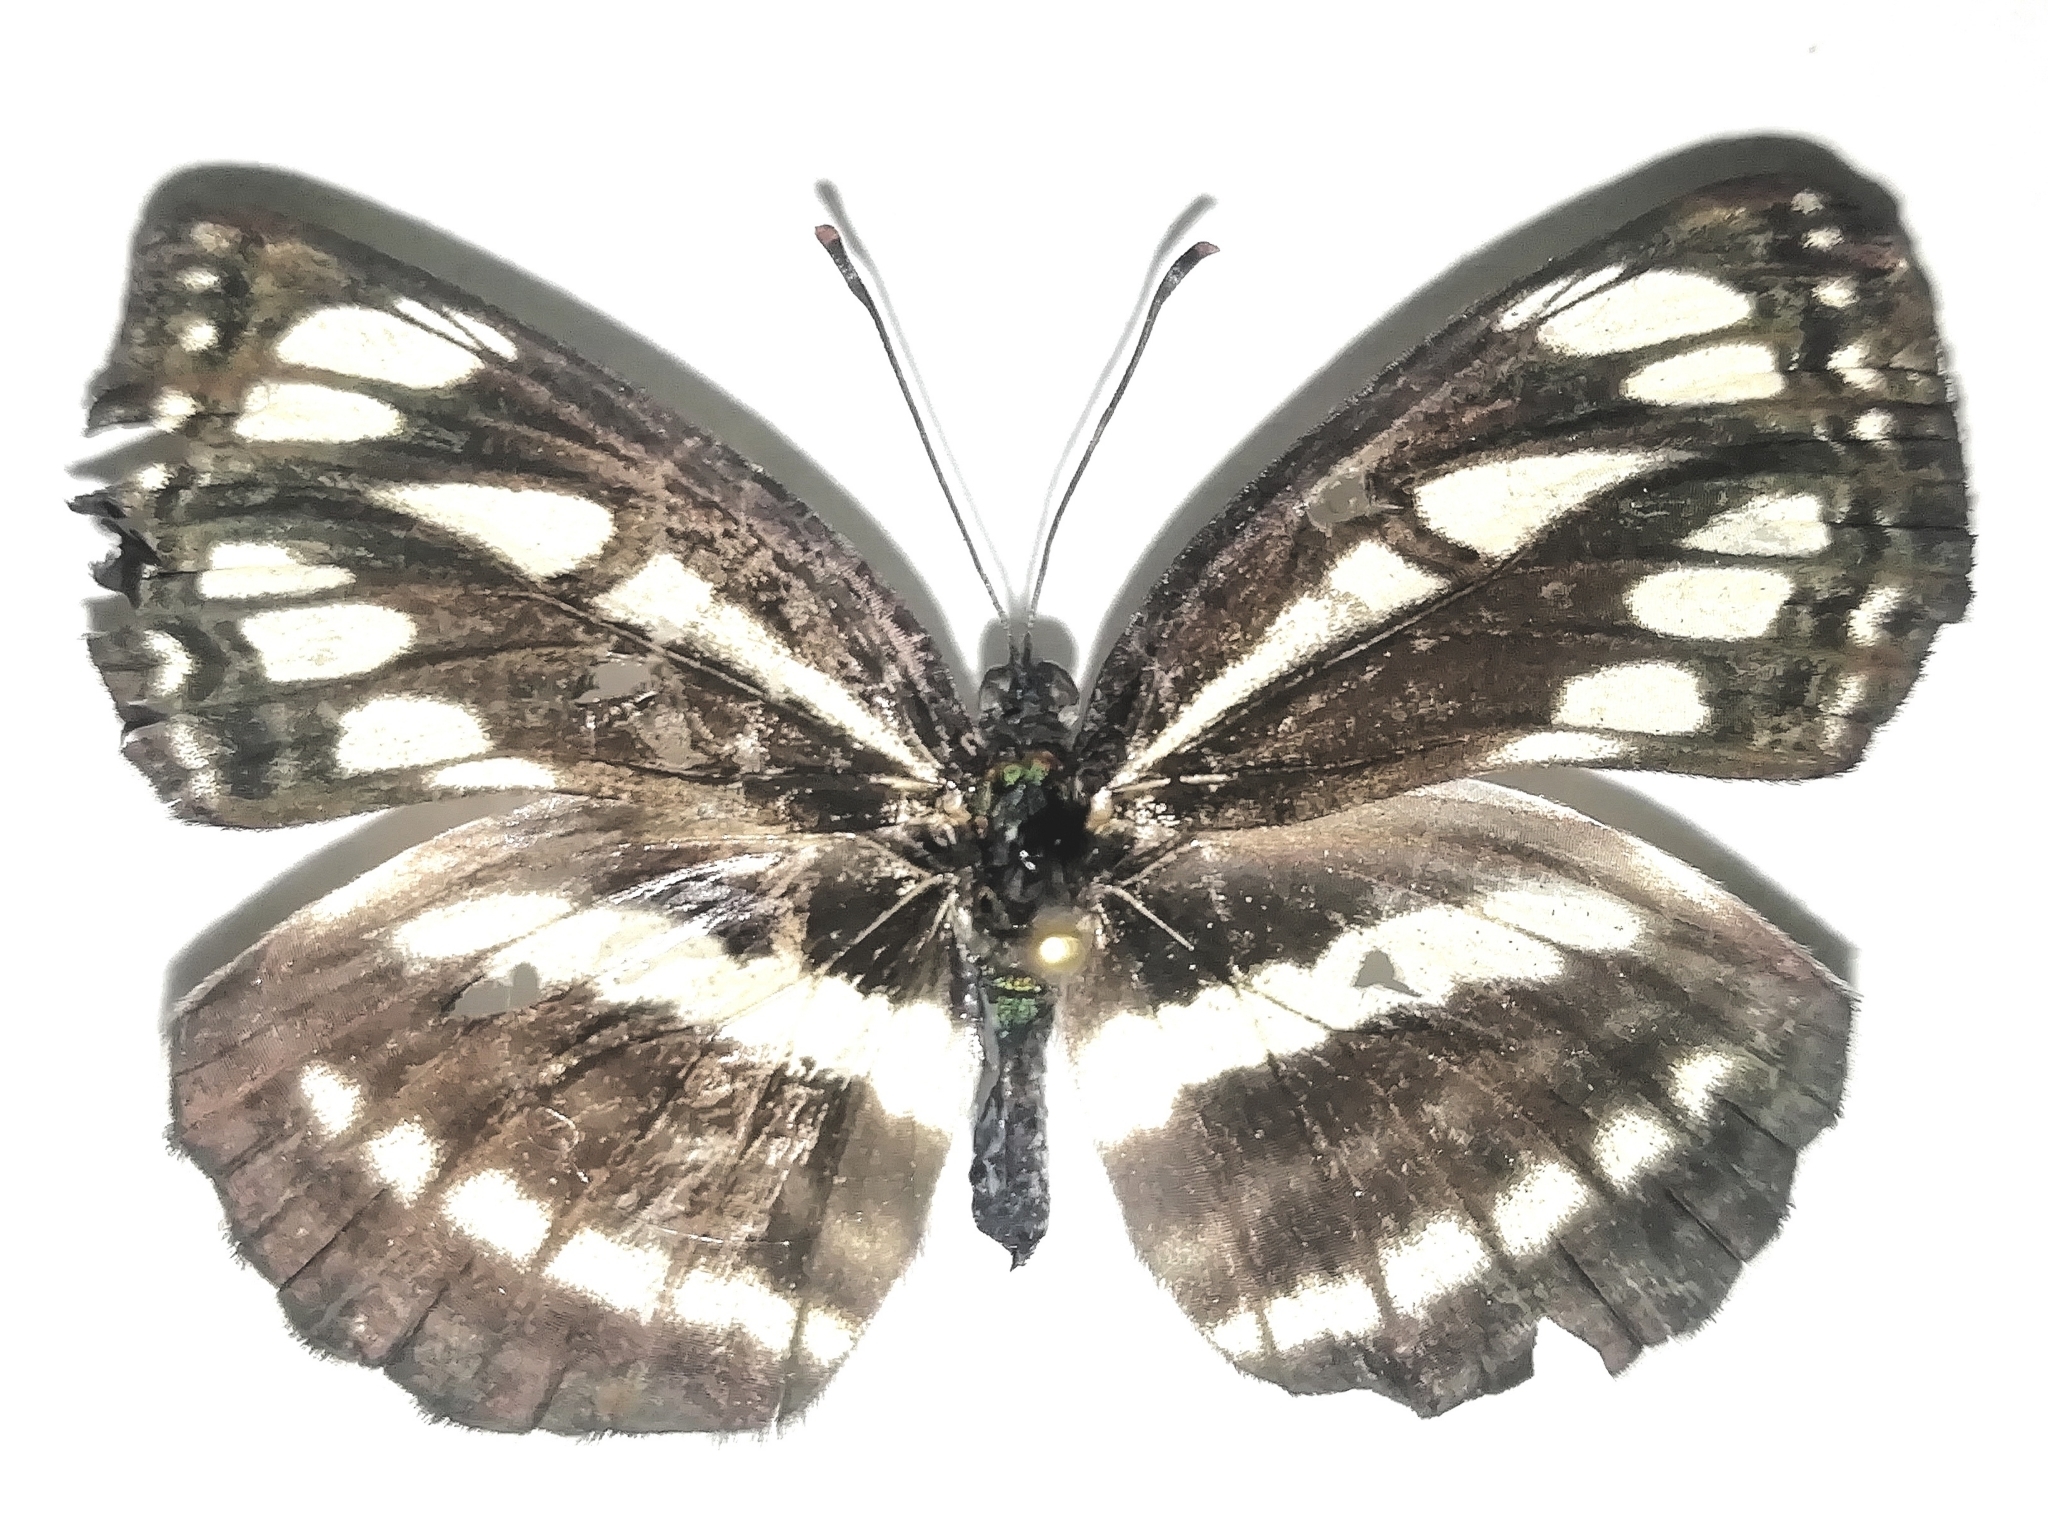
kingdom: Animalia
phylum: Arthropoda
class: Insecta
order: Lepidoptera
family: Nymphalidae
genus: Neptis
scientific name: Neptis sappho
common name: Common glider
